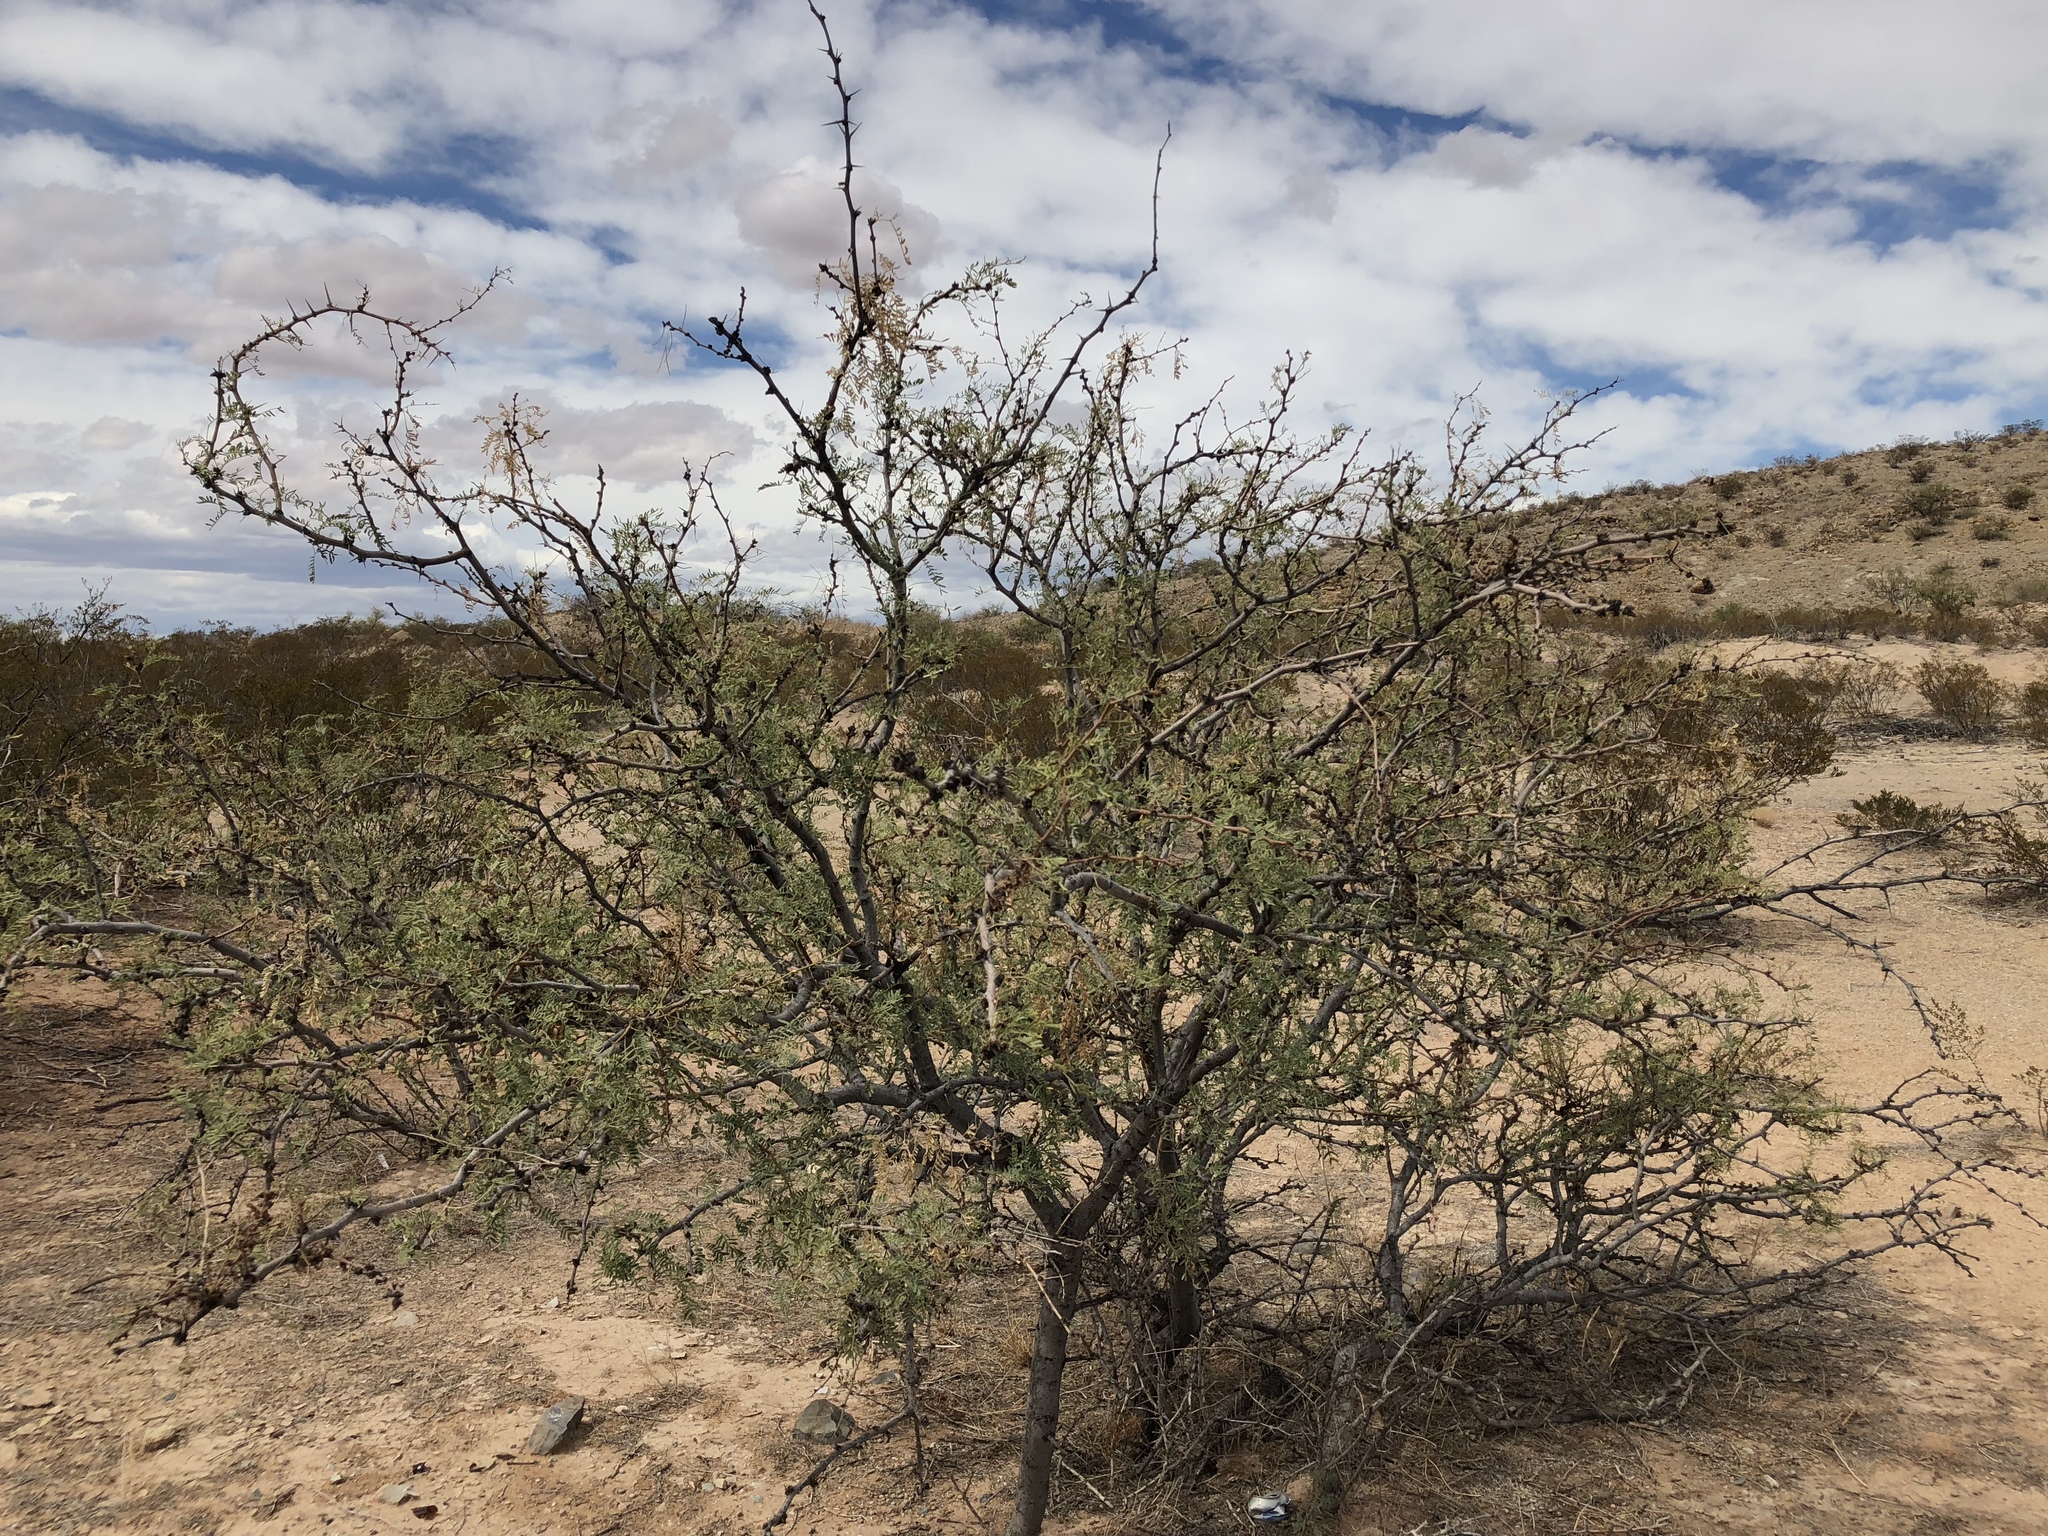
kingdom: Plantae
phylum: Tracheophyta
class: Magnoliopsida
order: Fabales
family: Fabaceae
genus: Prosopis
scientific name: Prosopis glandulosa
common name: Honey mesquite
